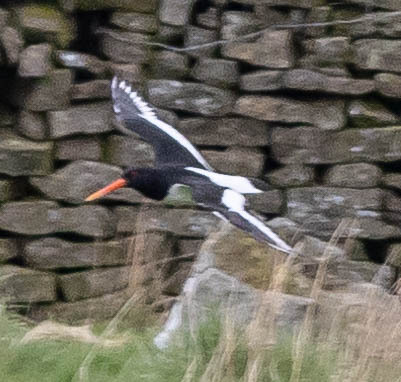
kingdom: Animalia
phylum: Chordata
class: Aves
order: Charadriiformes
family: Haematopodidae
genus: Haematopus
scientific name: Haematopus ostralegus
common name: Eurasian oystercatcher
